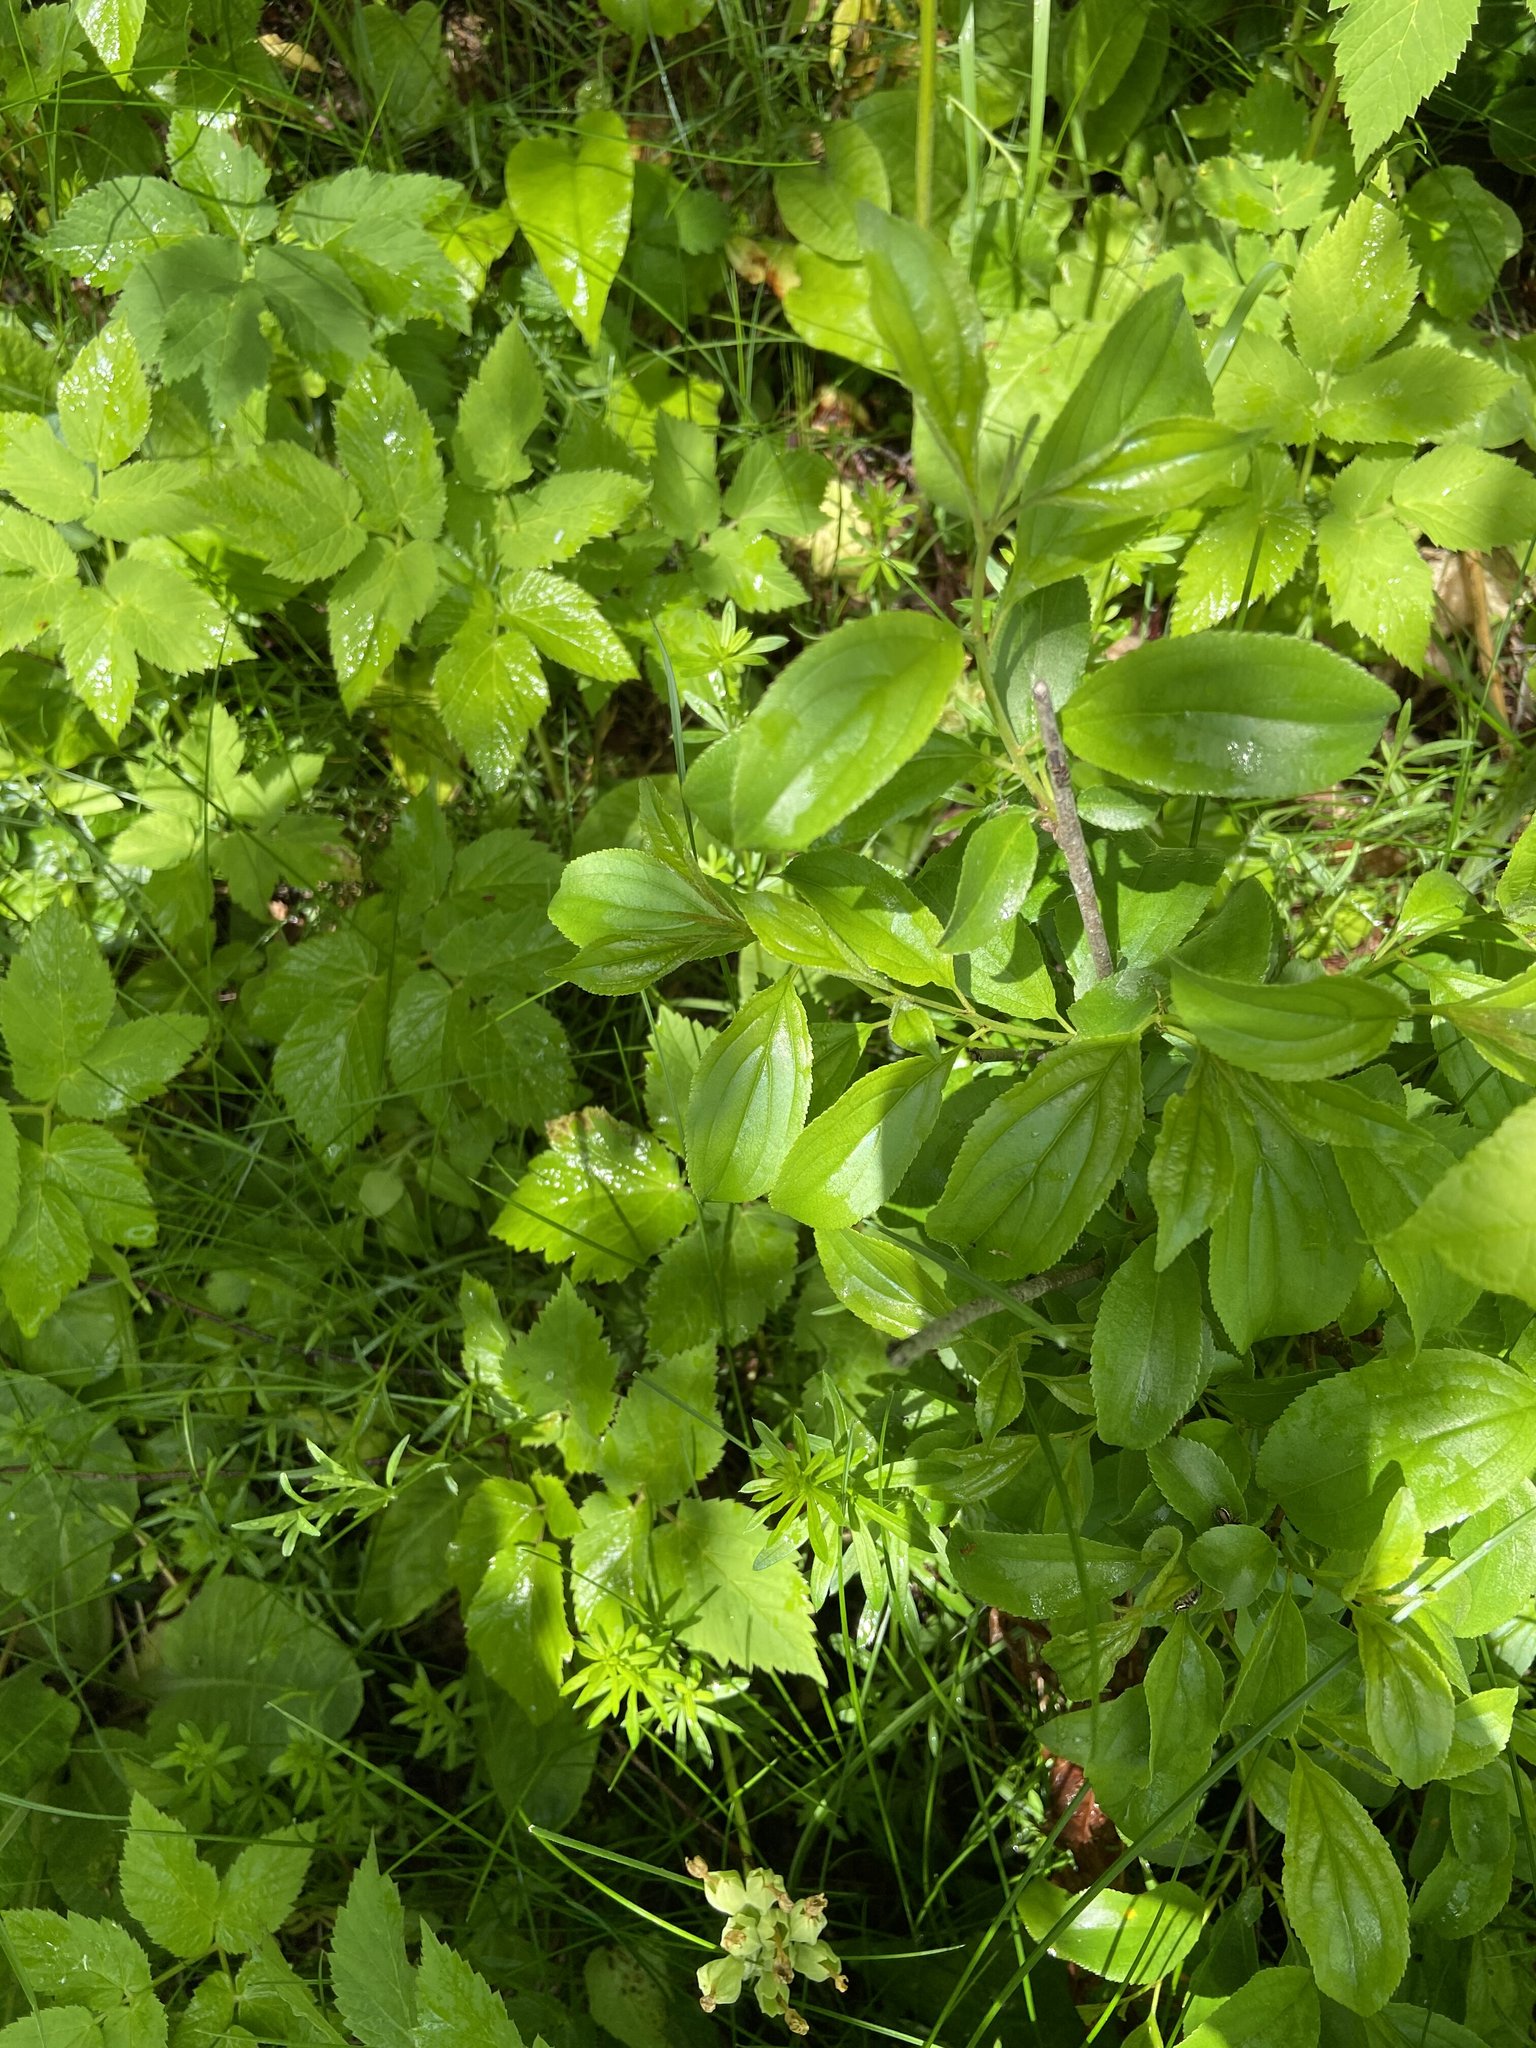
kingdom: Plantae
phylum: Tracheophyta
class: Magnoliopsida
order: Rosales
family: Rhamnaceae
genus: Rhamnus
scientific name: Rhamnus cathartica
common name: Common buckthorn
